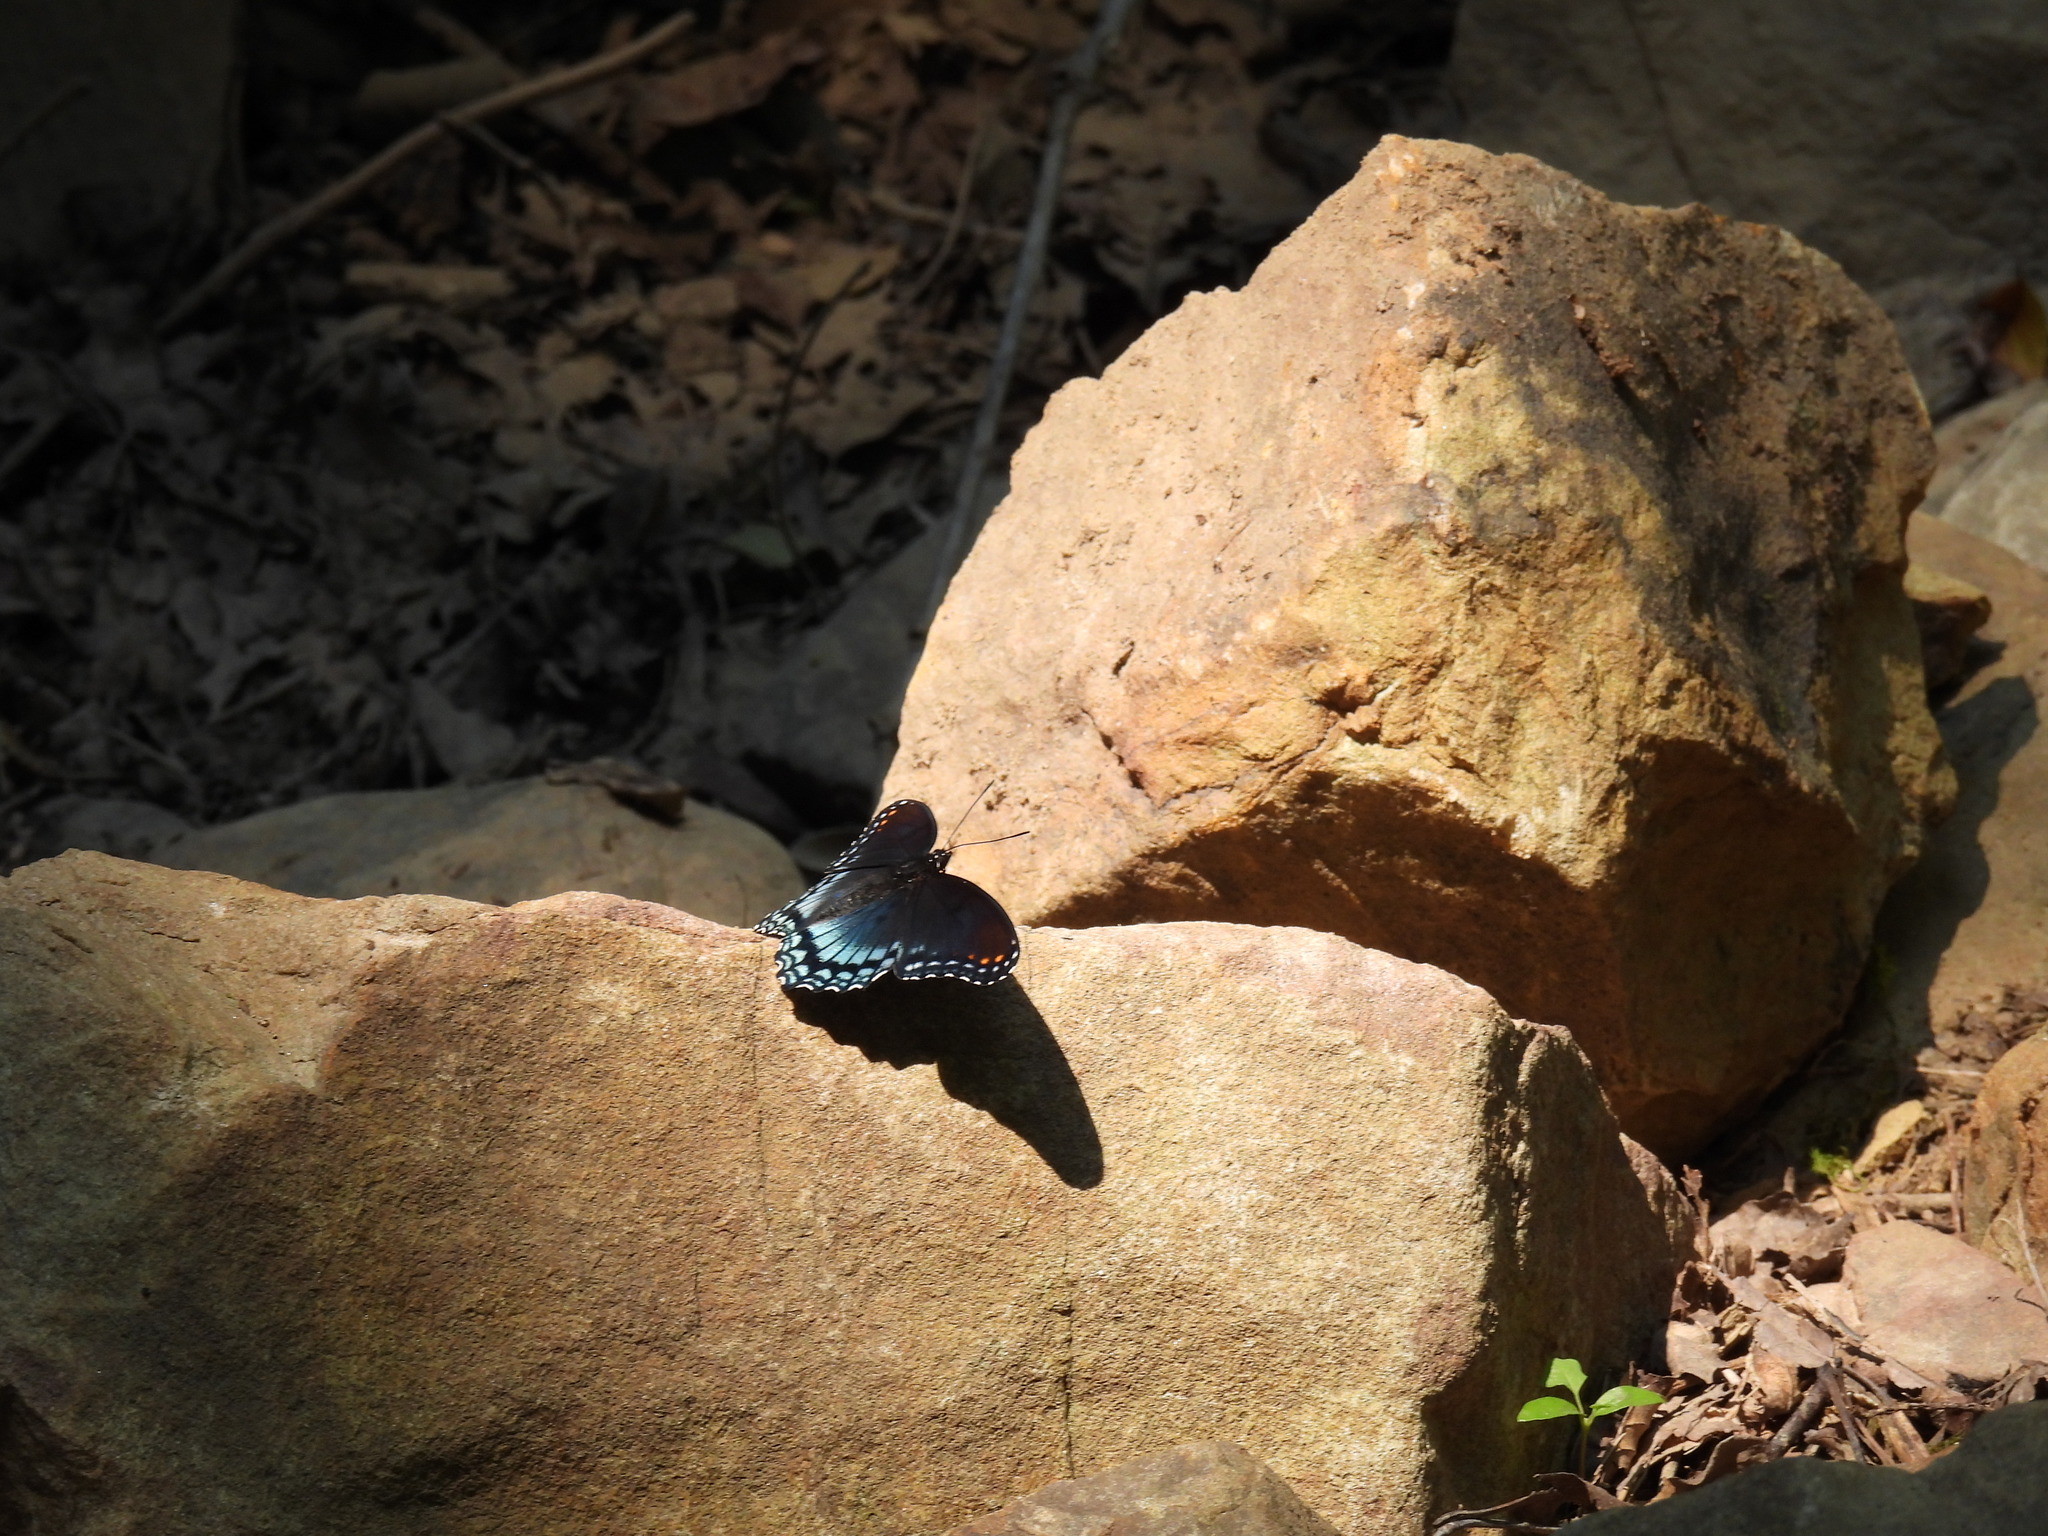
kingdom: Animalia
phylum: Arthropoda
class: Insecta
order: Lepidoptera
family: Nymphalidae
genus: Limenitis
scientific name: Limenitis arthemis
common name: Red-spotted admiral
